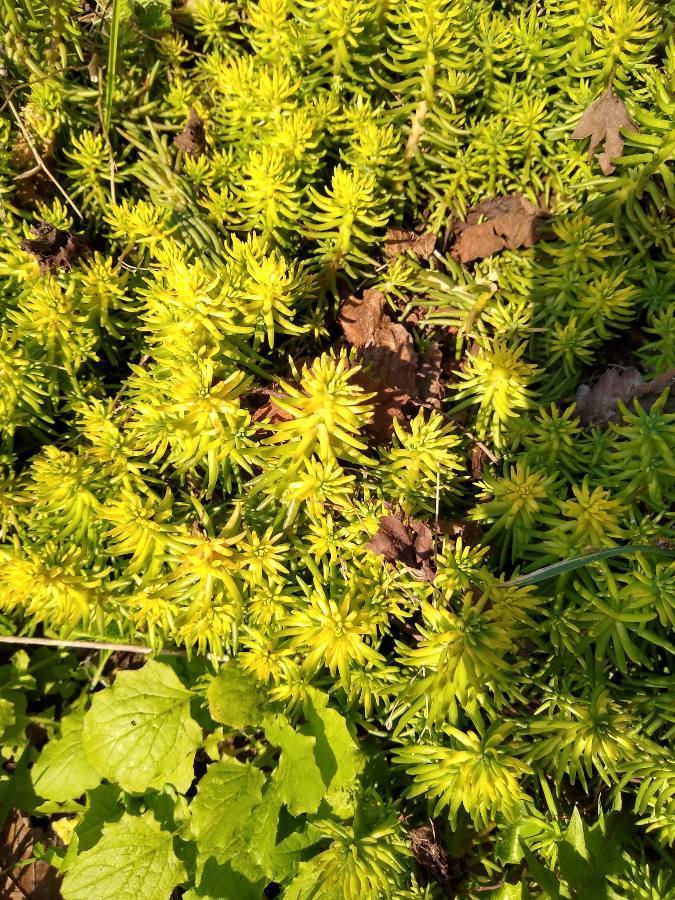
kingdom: Plantae
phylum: Tracheophyta
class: Magnoliopsida
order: Saxifragales
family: Crassulaceae
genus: Petrosedum
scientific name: Petrosedum rupestre
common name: Jenny's stonecrop
